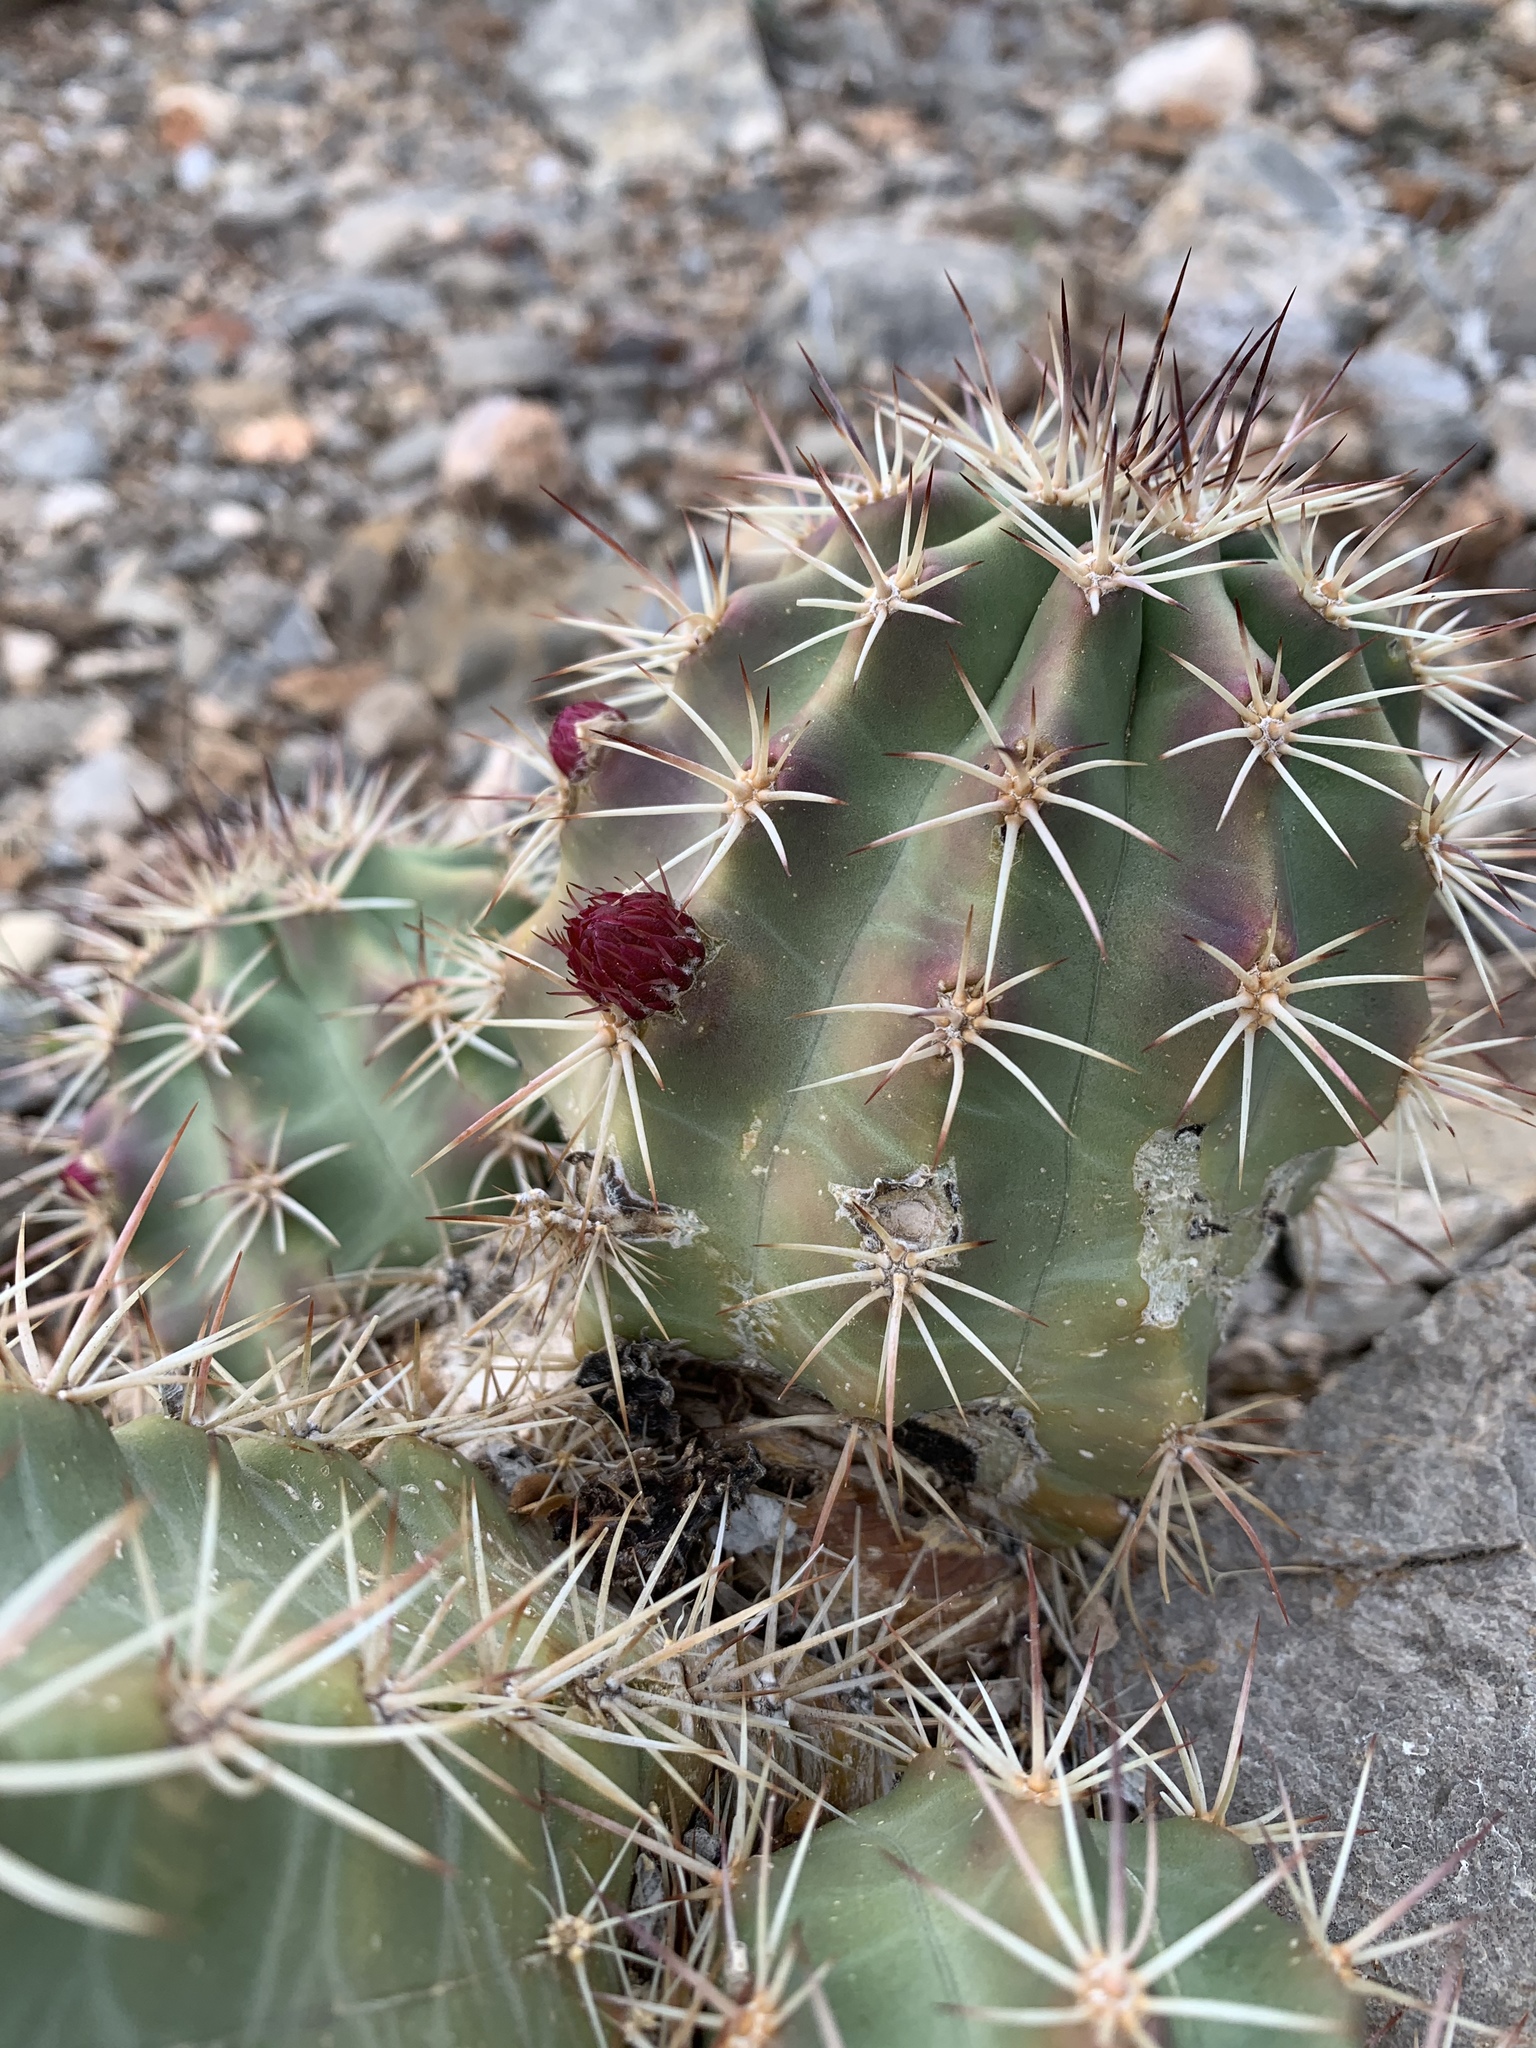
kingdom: Plantae
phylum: Tracheophyta
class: Magnoliopsida
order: Caryophyllales
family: Cactaceae
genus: Echinocereus
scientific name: Echinocereus coccineus
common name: Scarlet hedgehog cactus
